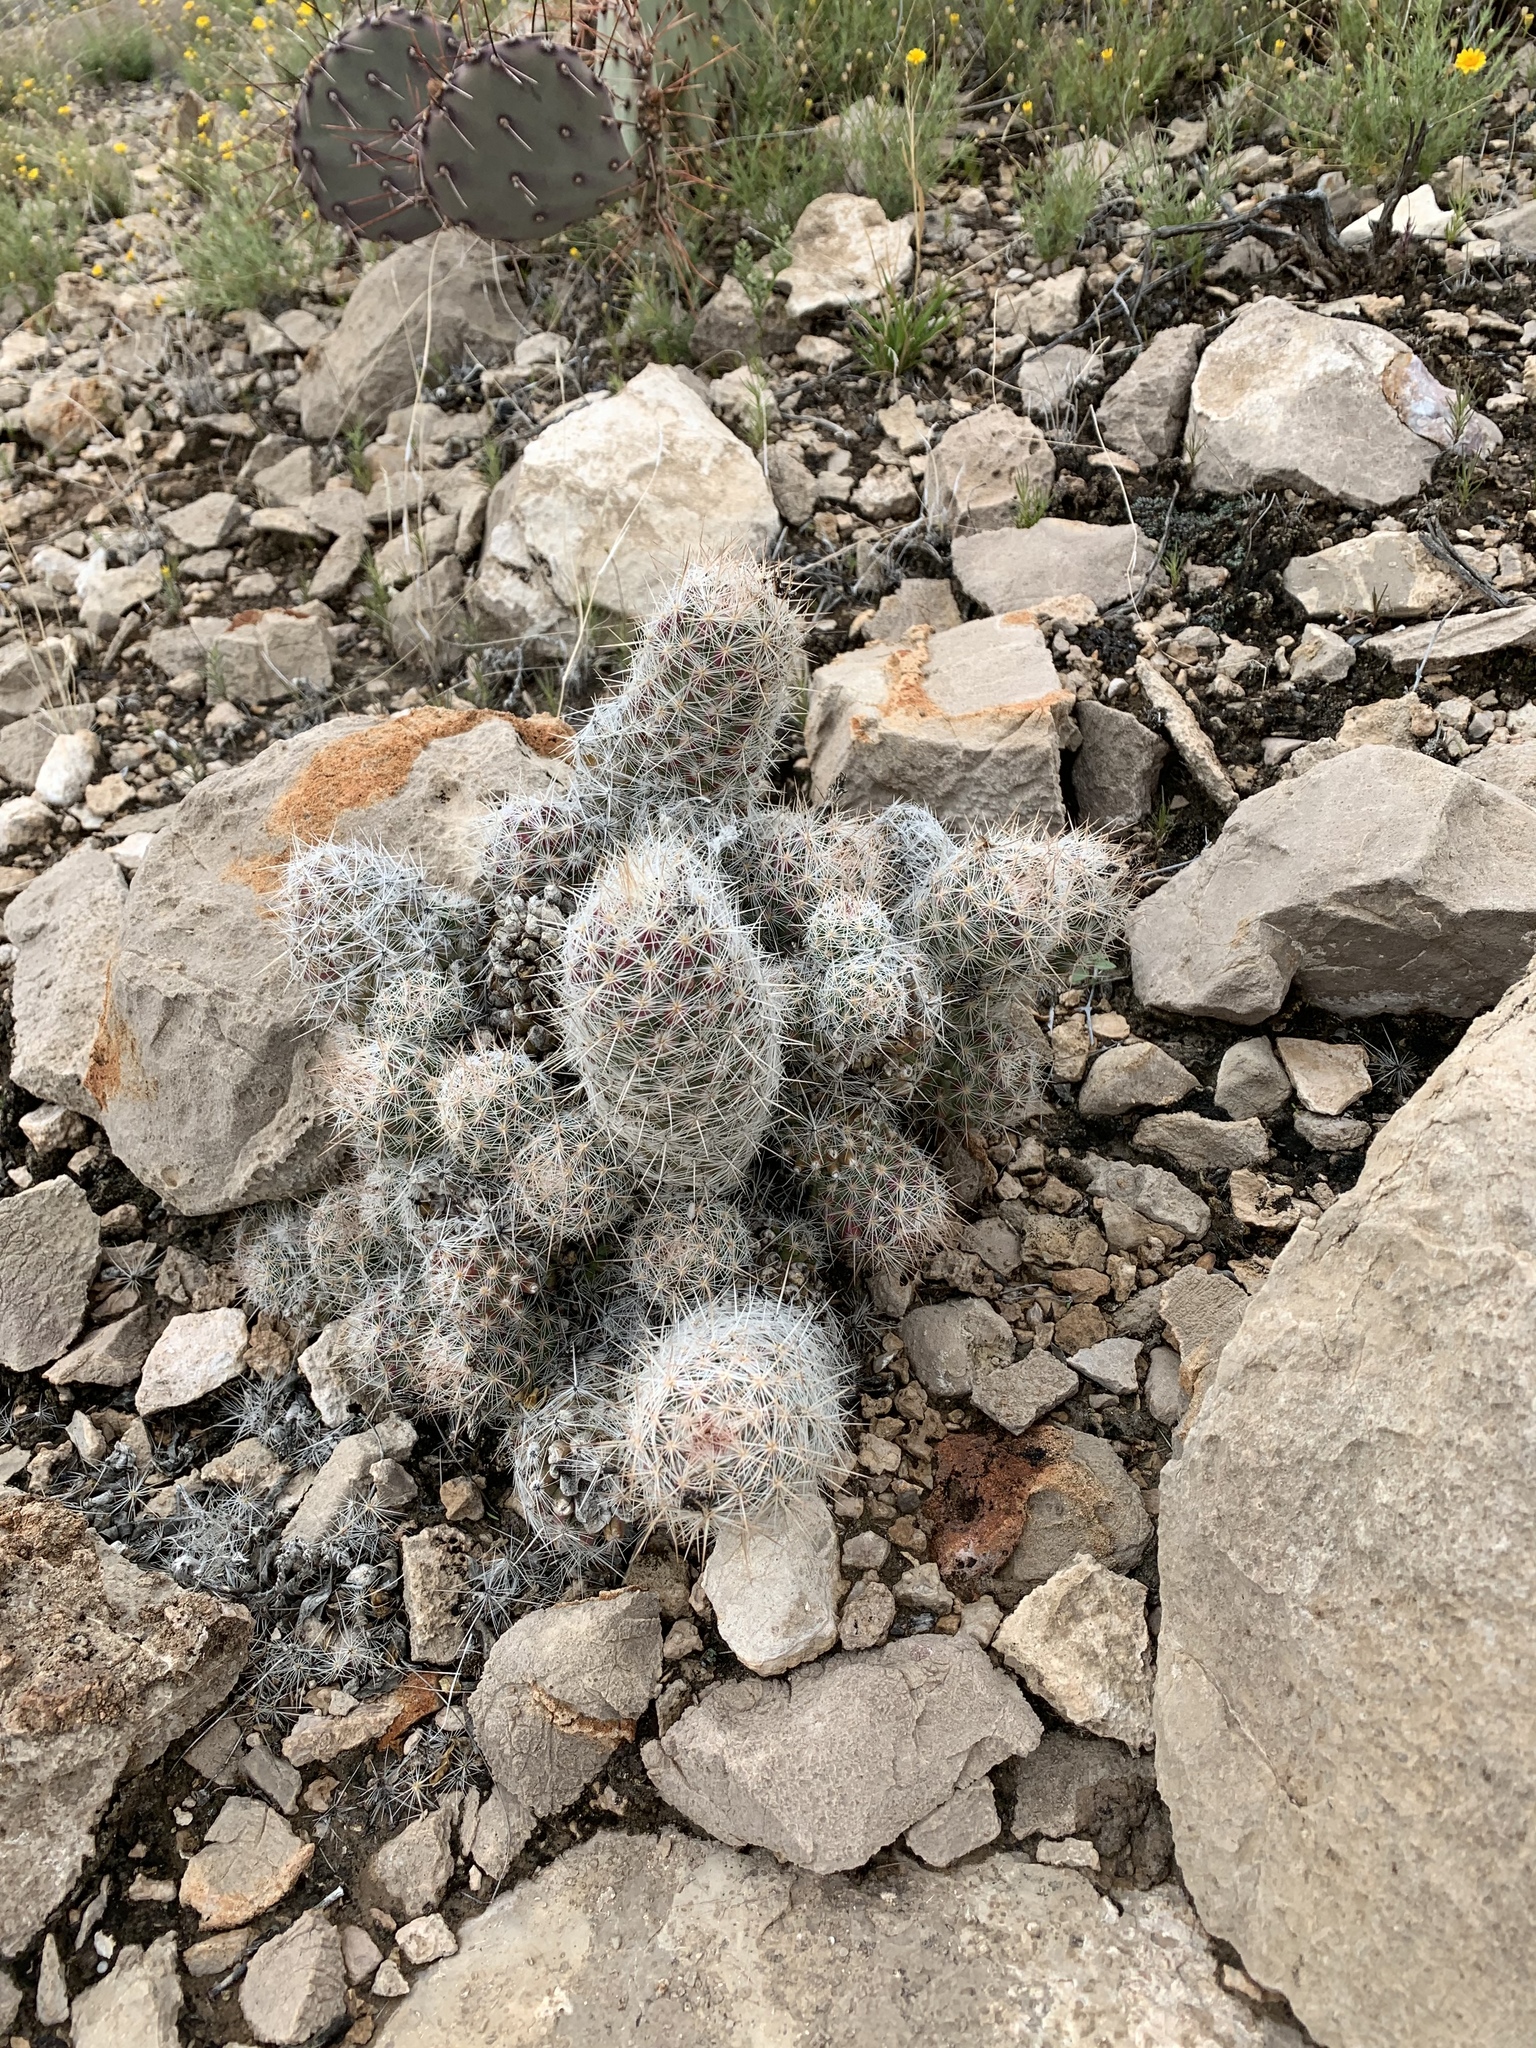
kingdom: Plantae
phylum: Tracheophyta
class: Magnoliopsida
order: Caryophyllales
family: Cactaceae
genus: Pelecyphora
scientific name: Pelecyphora tuberculosa
